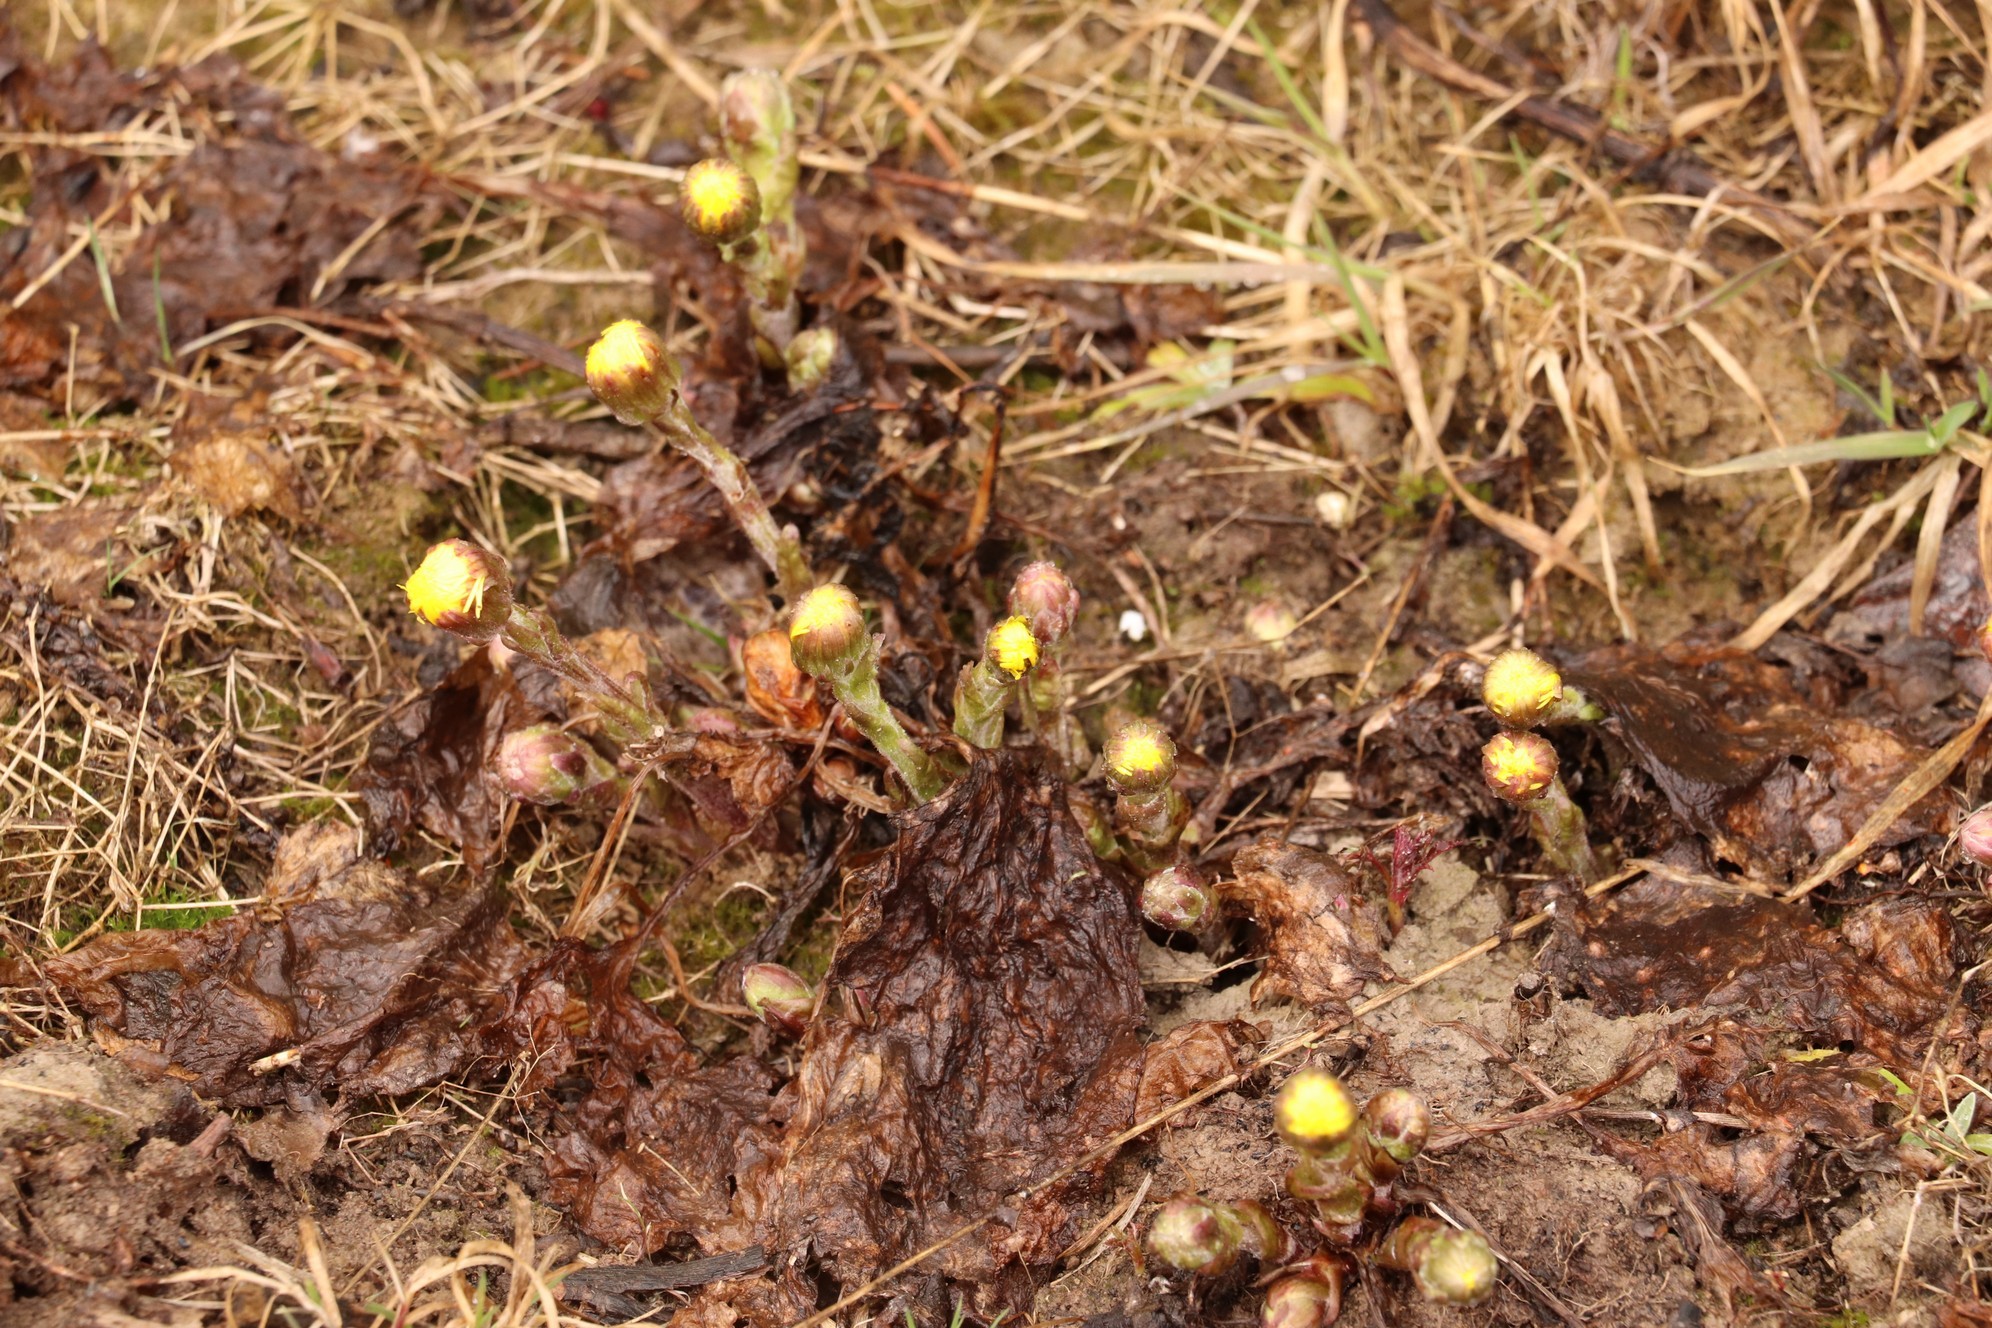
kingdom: Plantae
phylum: Tracheophyta
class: Magnoliopsida
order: Asterales
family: Asteraceae
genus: Tussilago
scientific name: Tussilago farfara
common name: Coltsfoot
